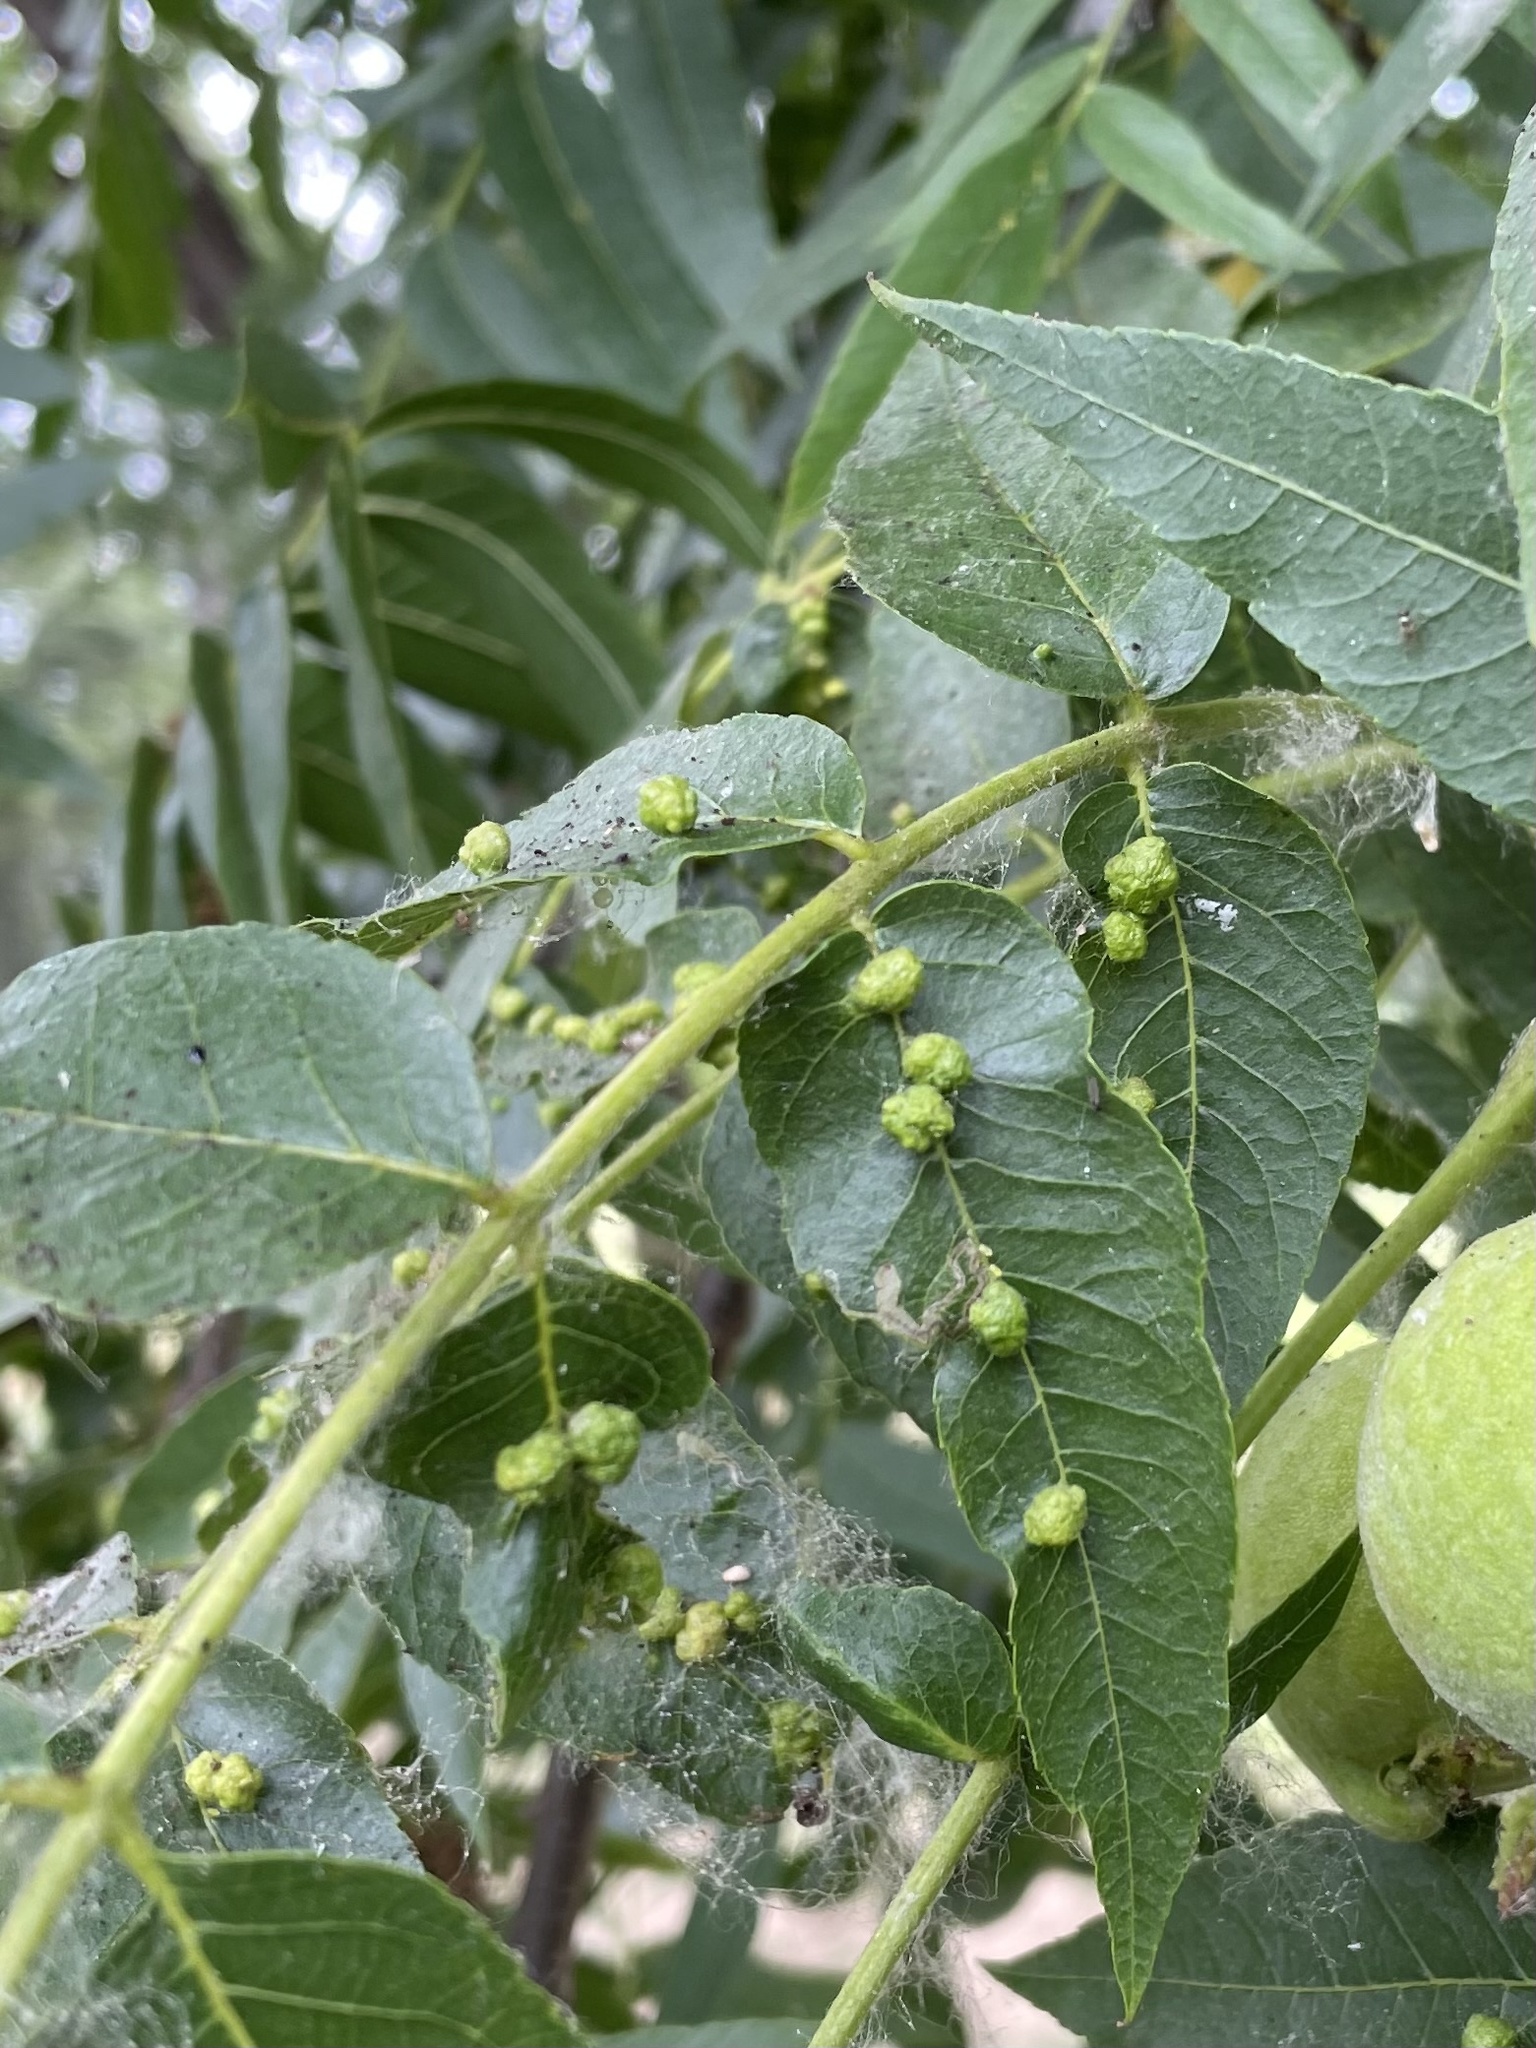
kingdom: Animalia
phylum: Arthropoda
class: Arachnida
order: Trombidiformes
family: Eriophyidae
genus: Aceria
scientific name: Aceria brachytarsus
